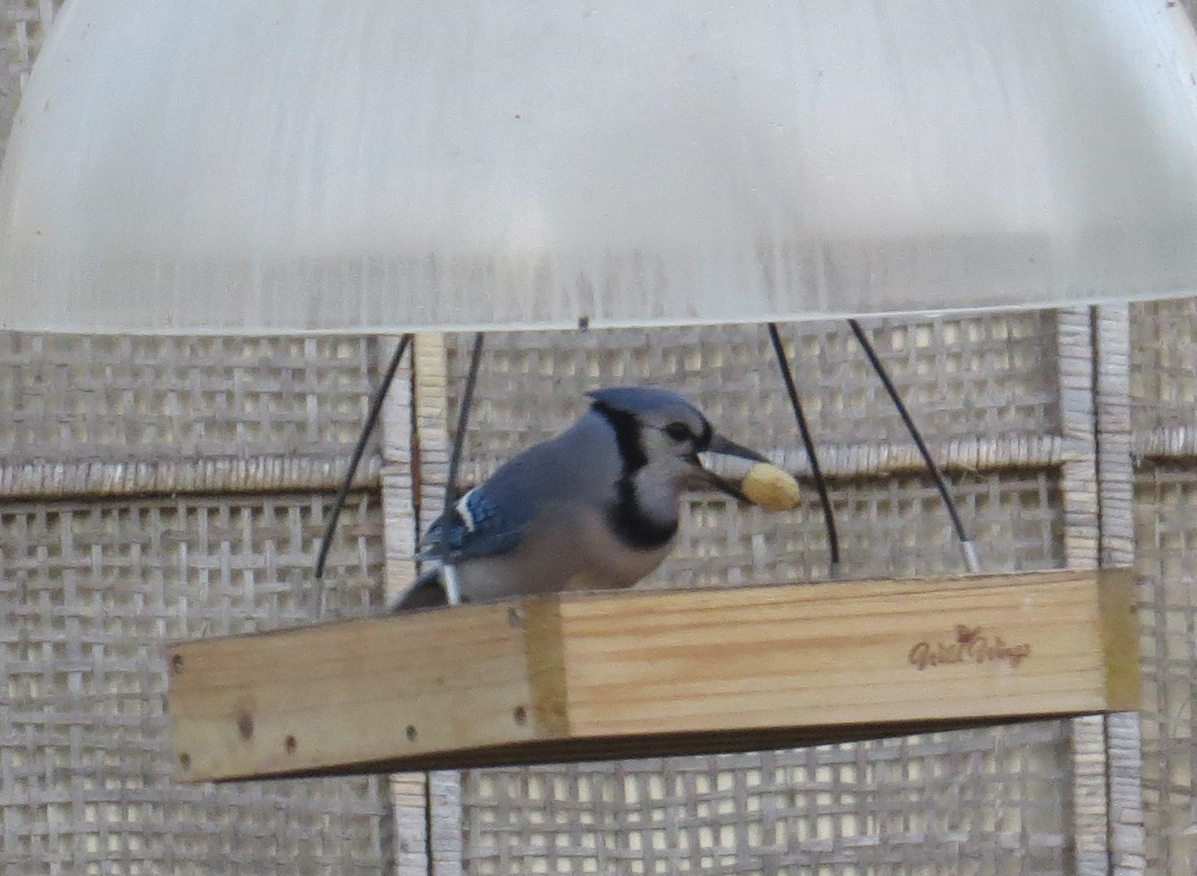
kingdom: Animalia
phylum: Chordata
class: Aves
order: Passeriformes
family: Corvidae
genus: Cyanocitta
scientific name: Cyanocitta cristata
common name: Blue jay
